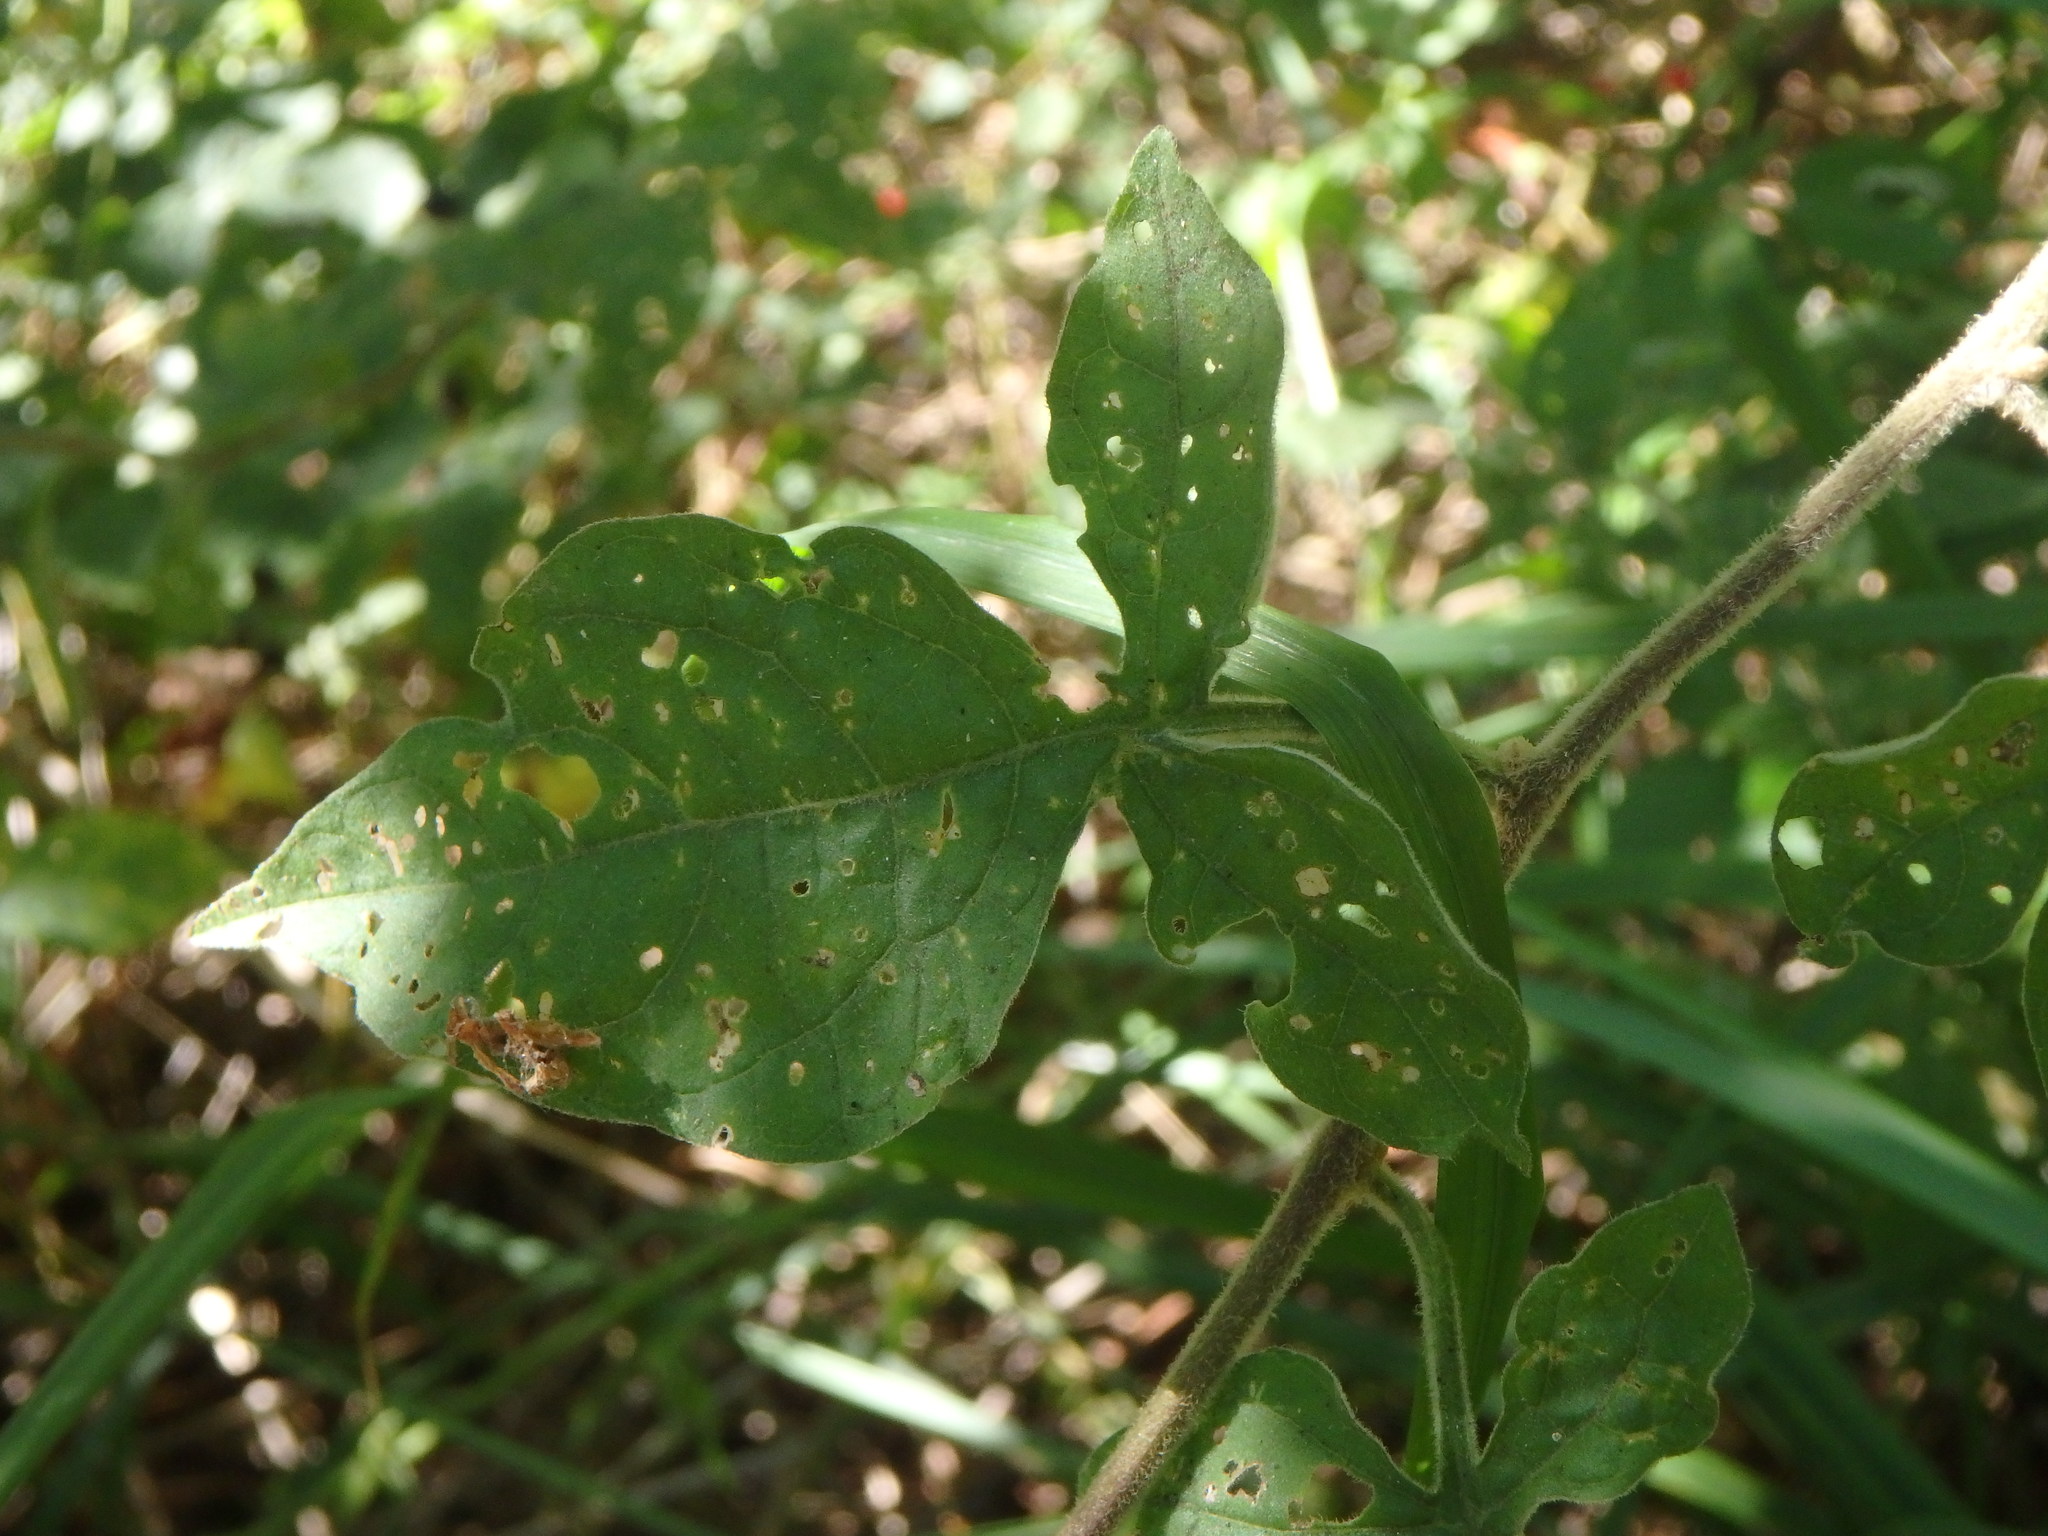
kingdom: Plantae
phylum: Tracheophyta
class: Magnoliopsida
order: Solanales
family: Solanaceae
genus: Solanum
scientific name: Solanum dulcamara
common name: Climbing nightshade
